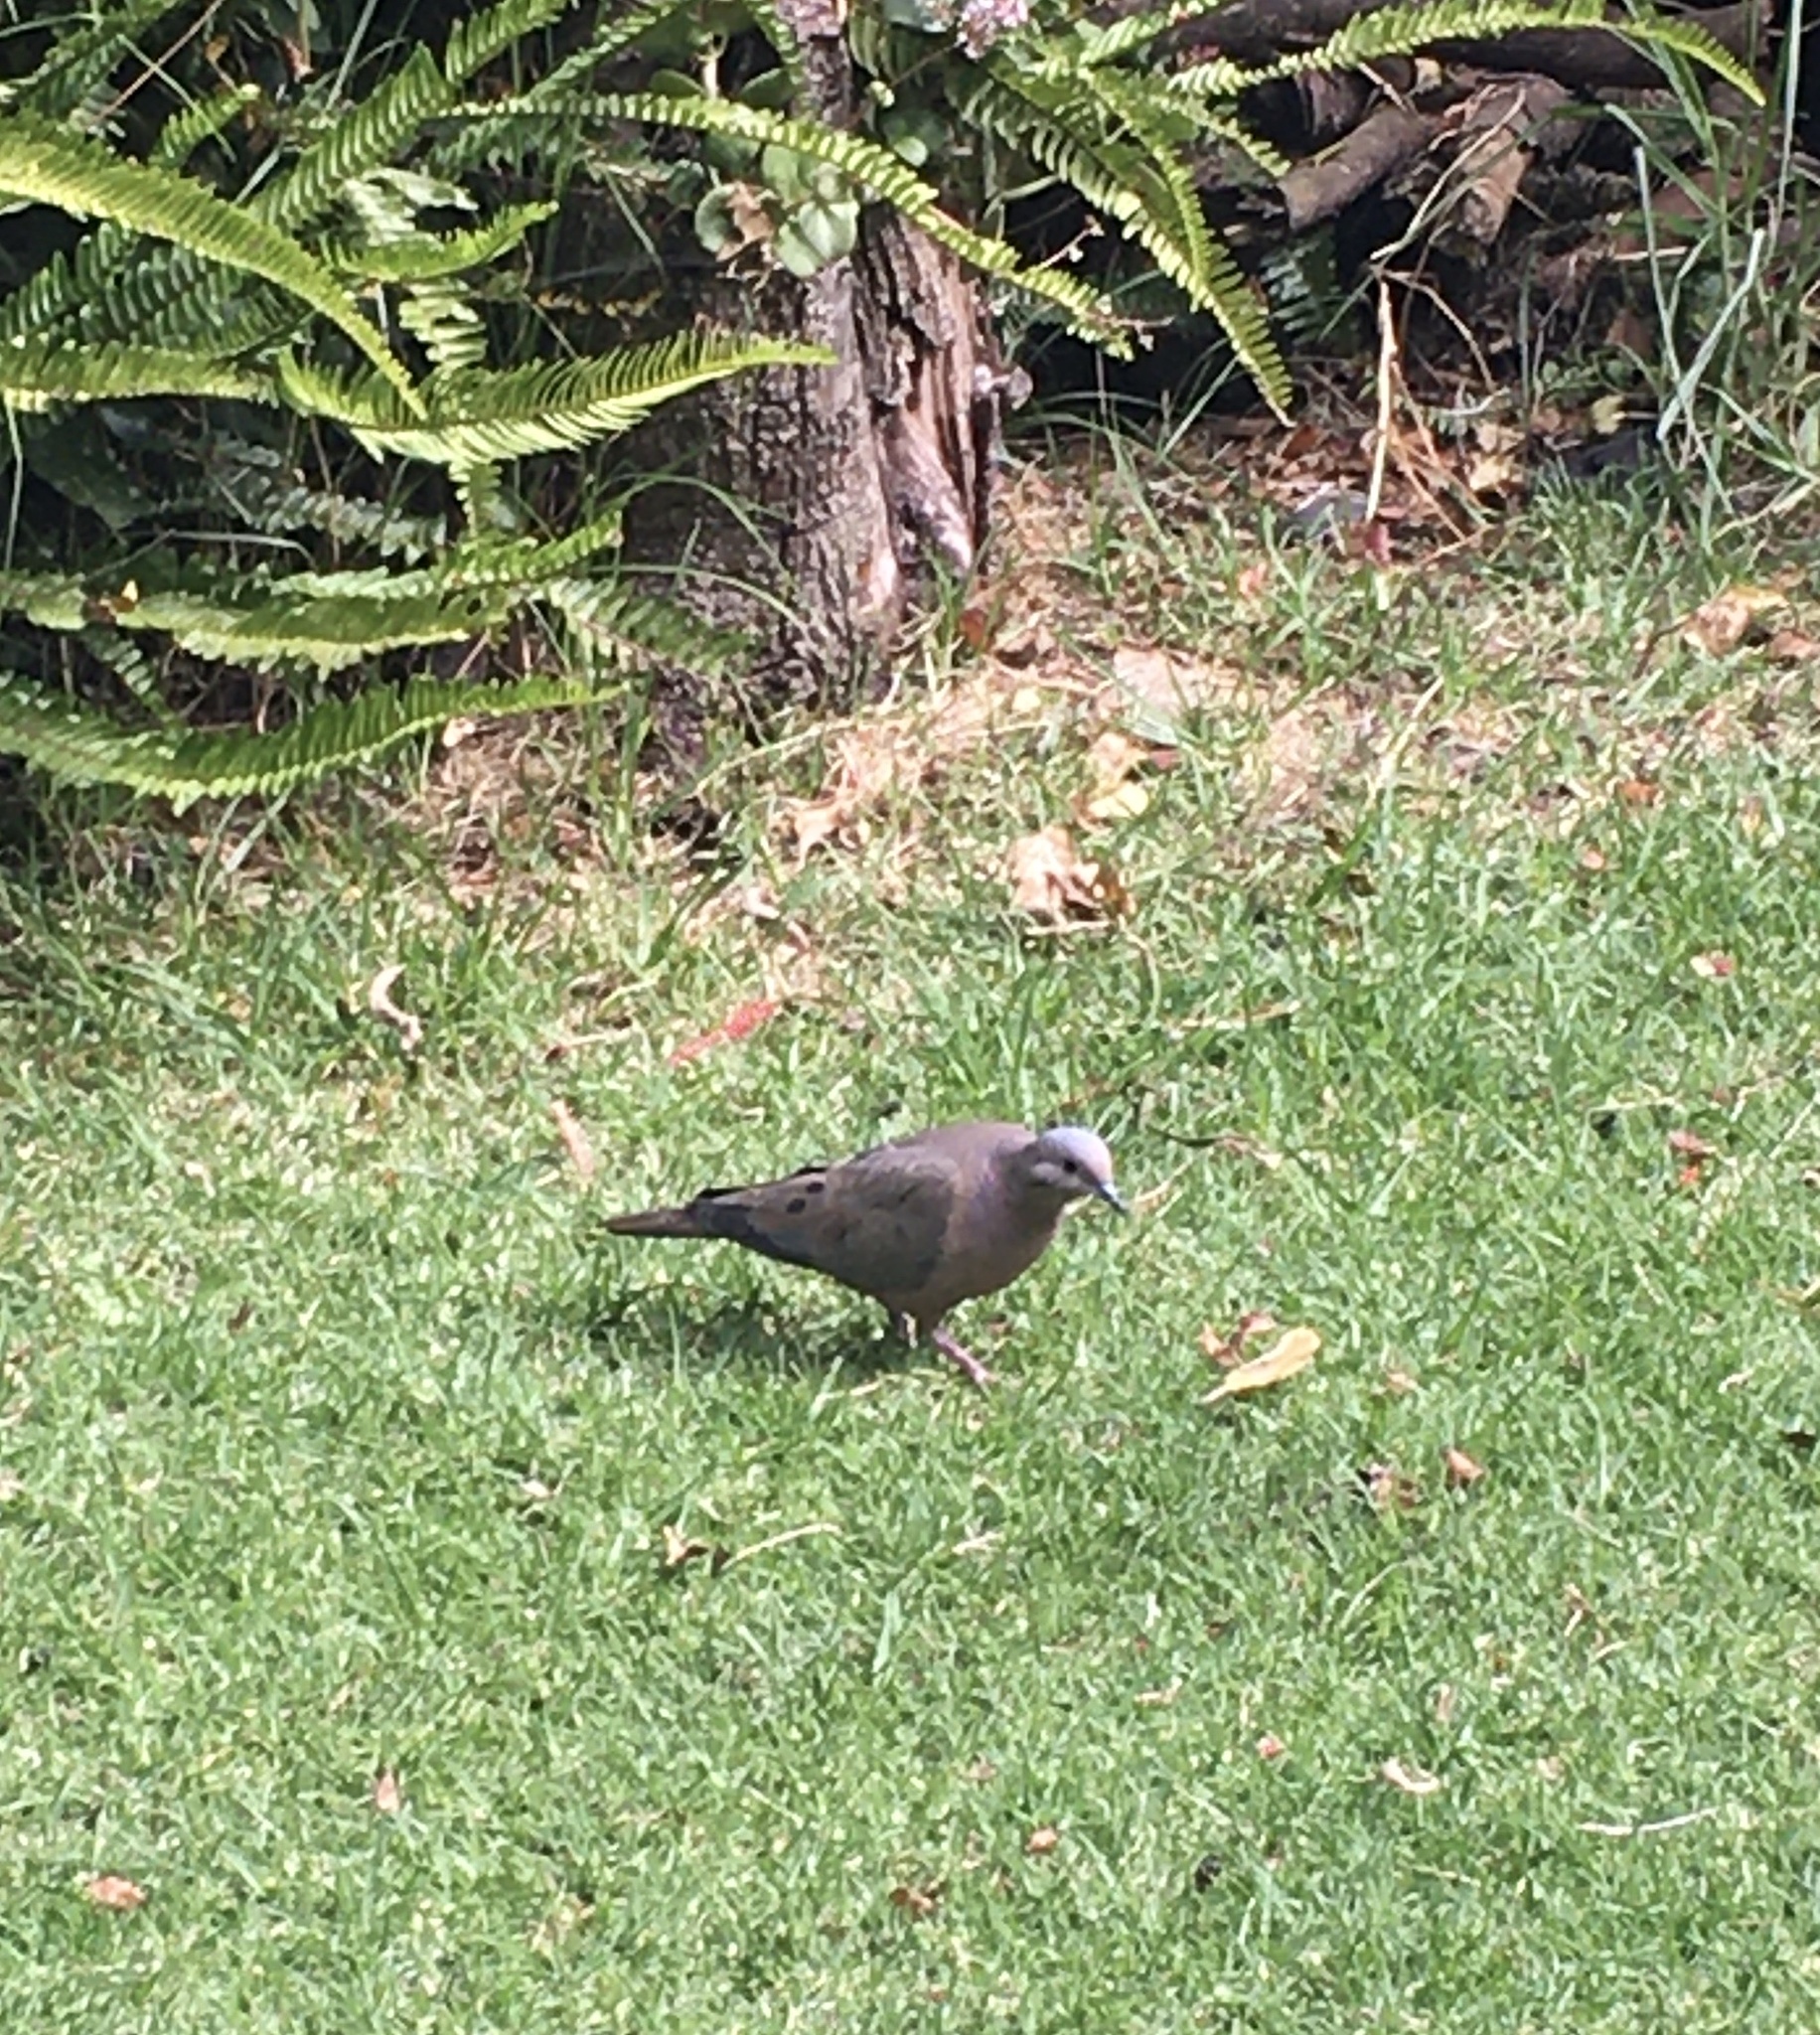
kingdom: Animalia
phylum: Chordata
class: Aves
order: Columbiformes
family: Columbidae
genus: Zenaida
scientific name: Zenaida auriculata
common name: Eared dove
